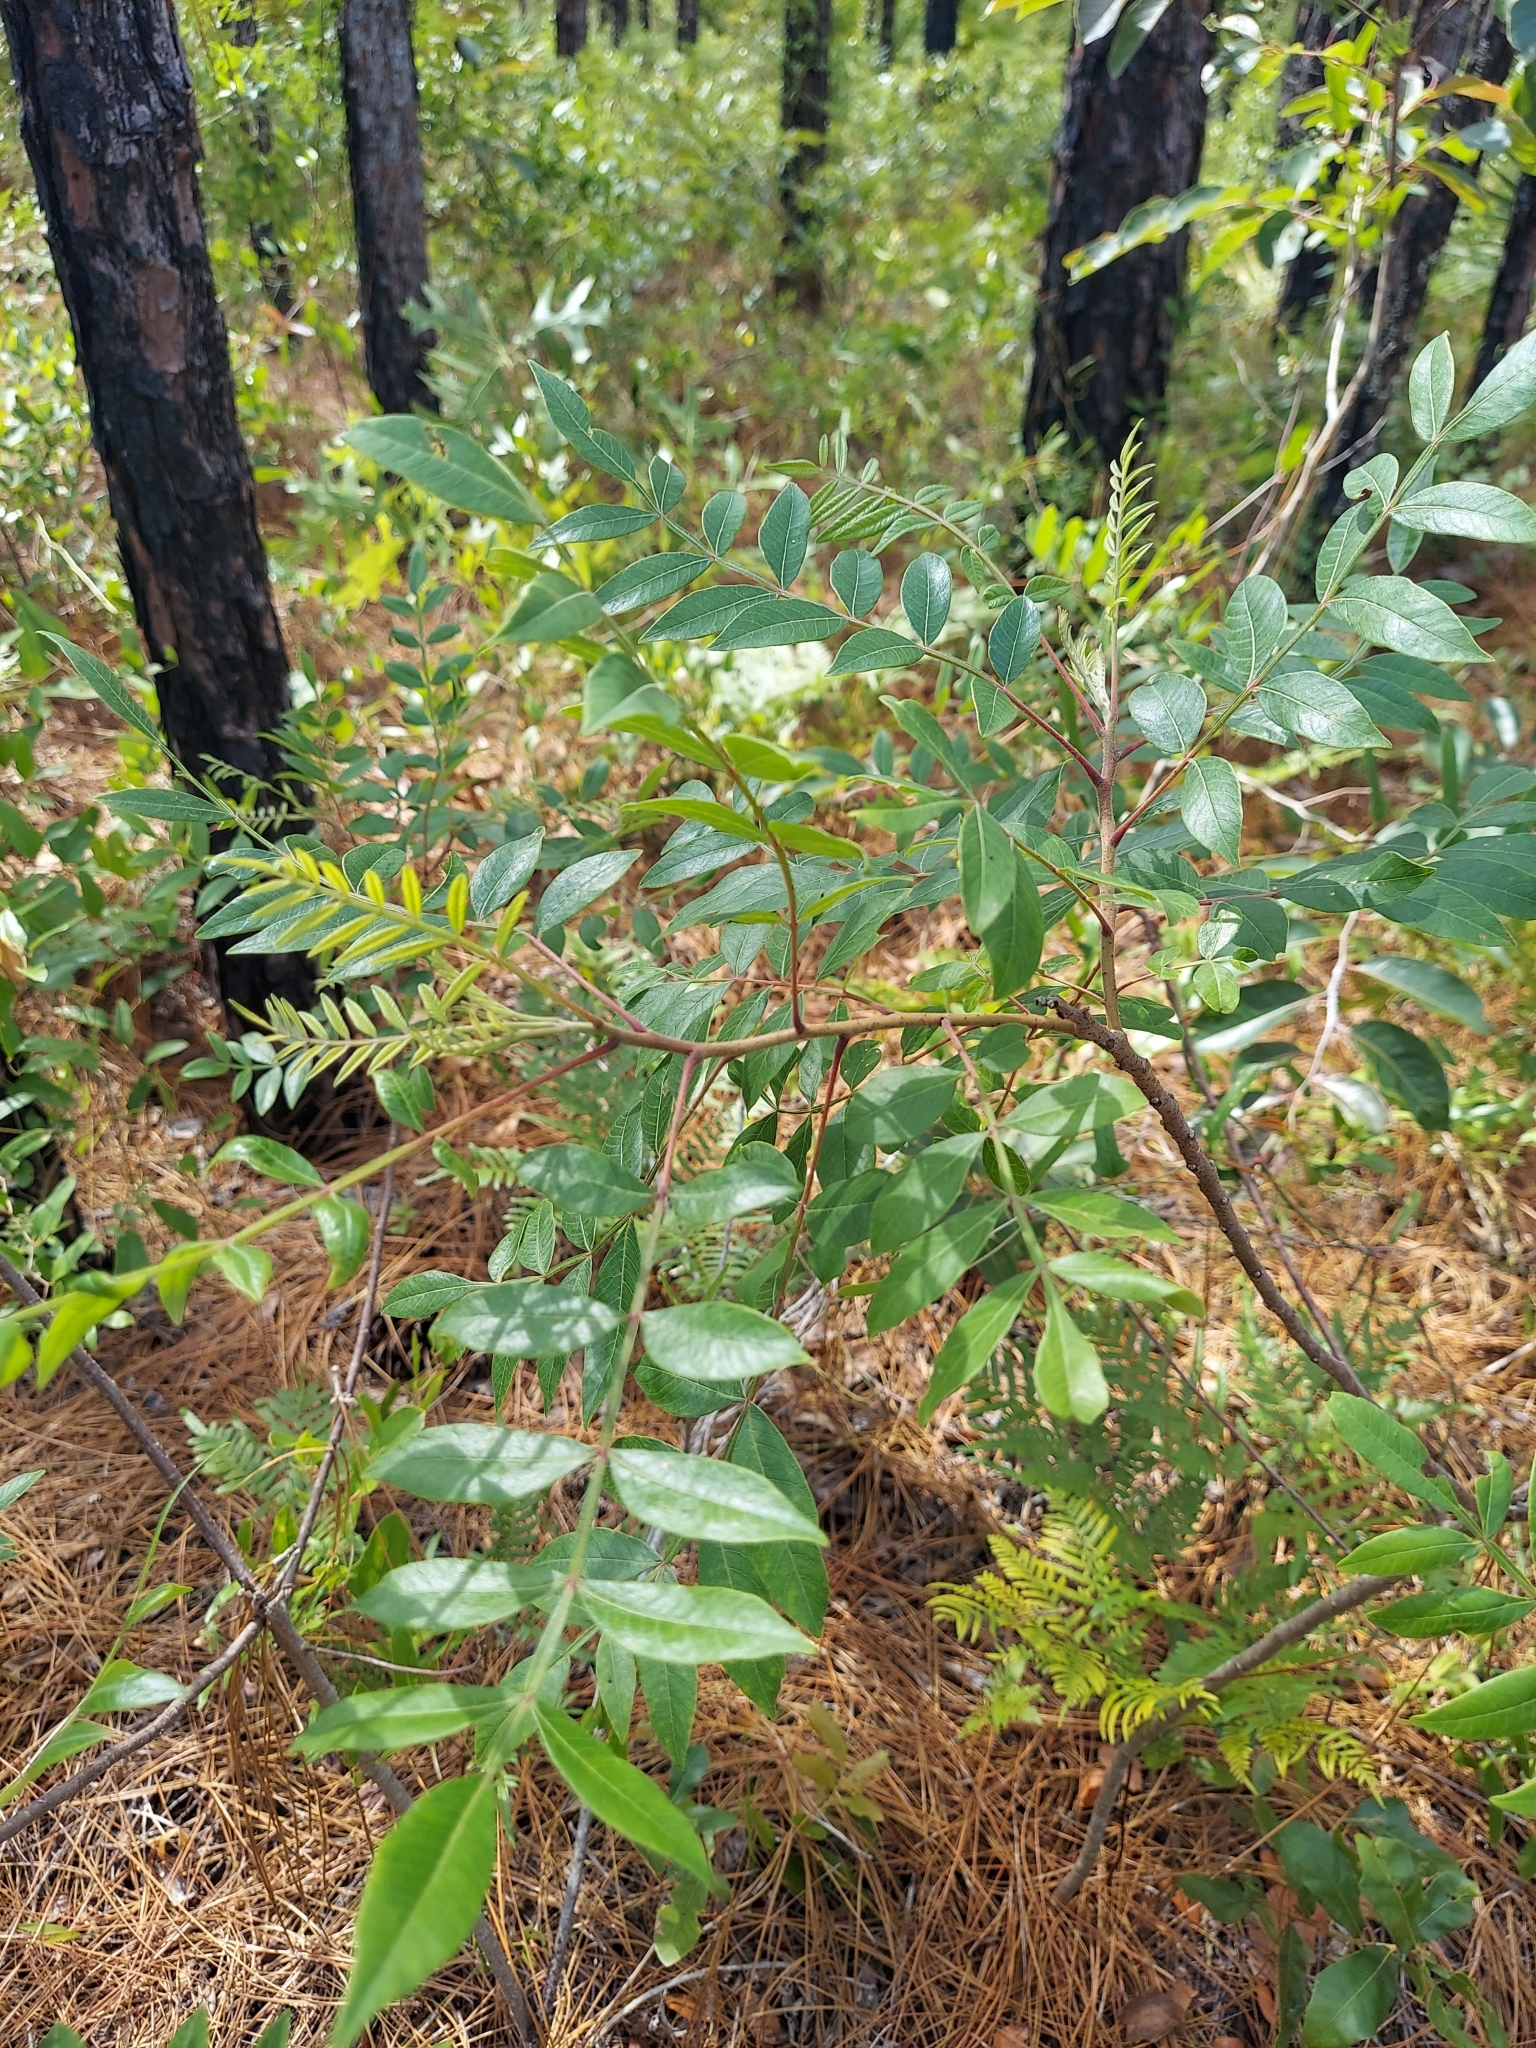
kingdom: Plantae
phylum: Tracheophyta
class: Magnoliopsida
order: Sapindales
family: Anacardiaceae
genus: Rhus
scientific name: Rhus copallina
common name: Shining sumac
